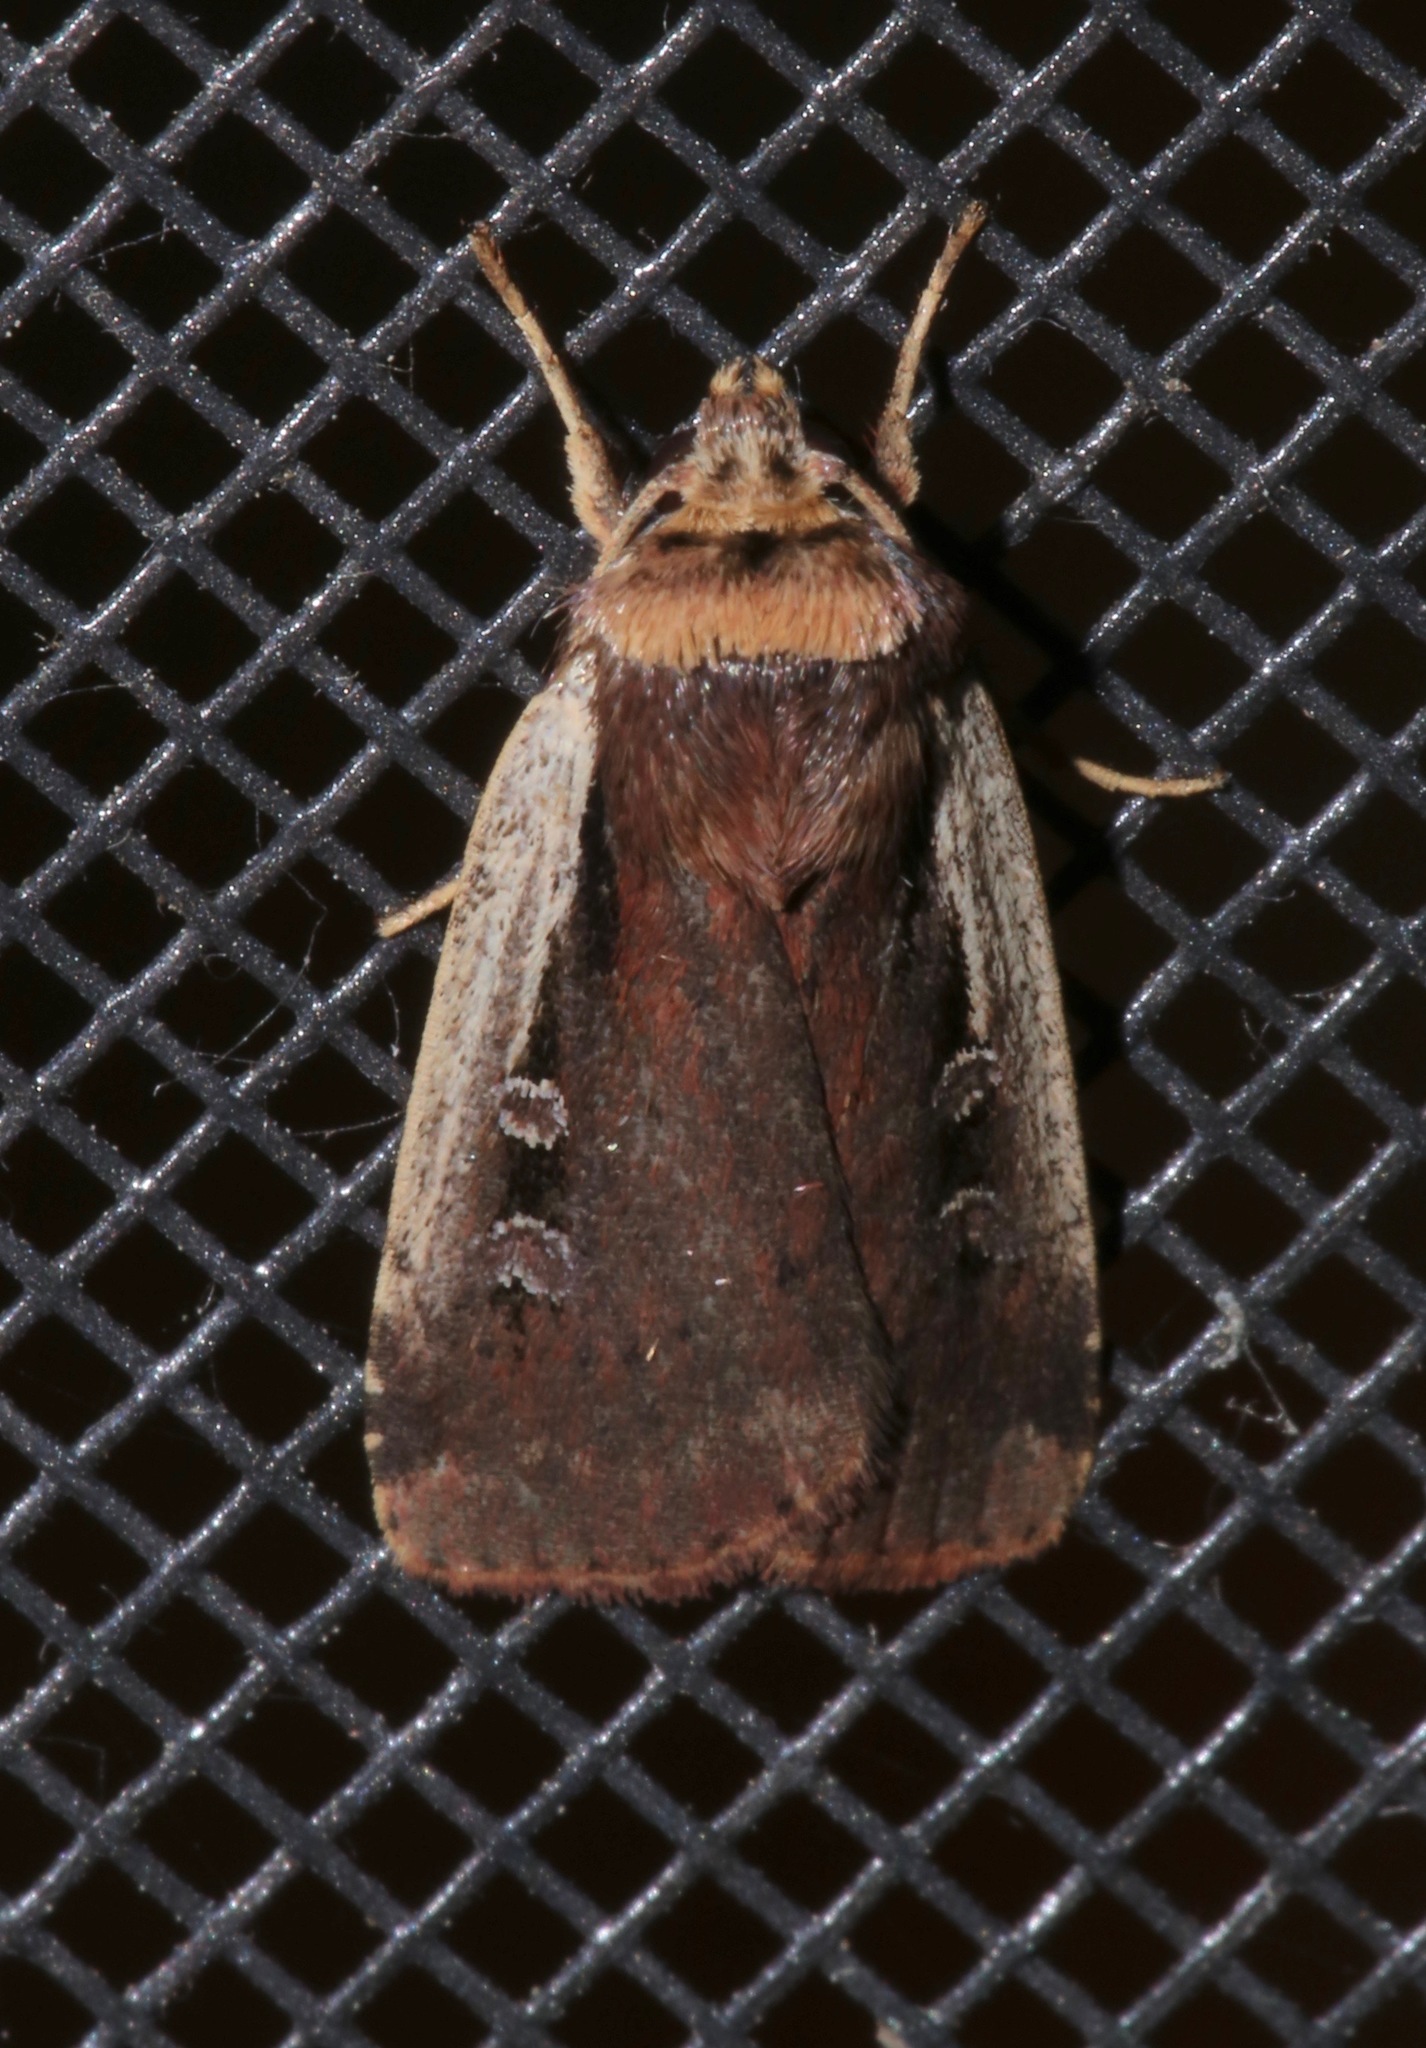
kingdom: Animalia
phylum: Arthropoda
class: Insecta
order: Lepidoptera
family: Noctuidae
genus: Ochropleura
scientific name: Ochropleura implecta
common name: Flame-shouldered dart
